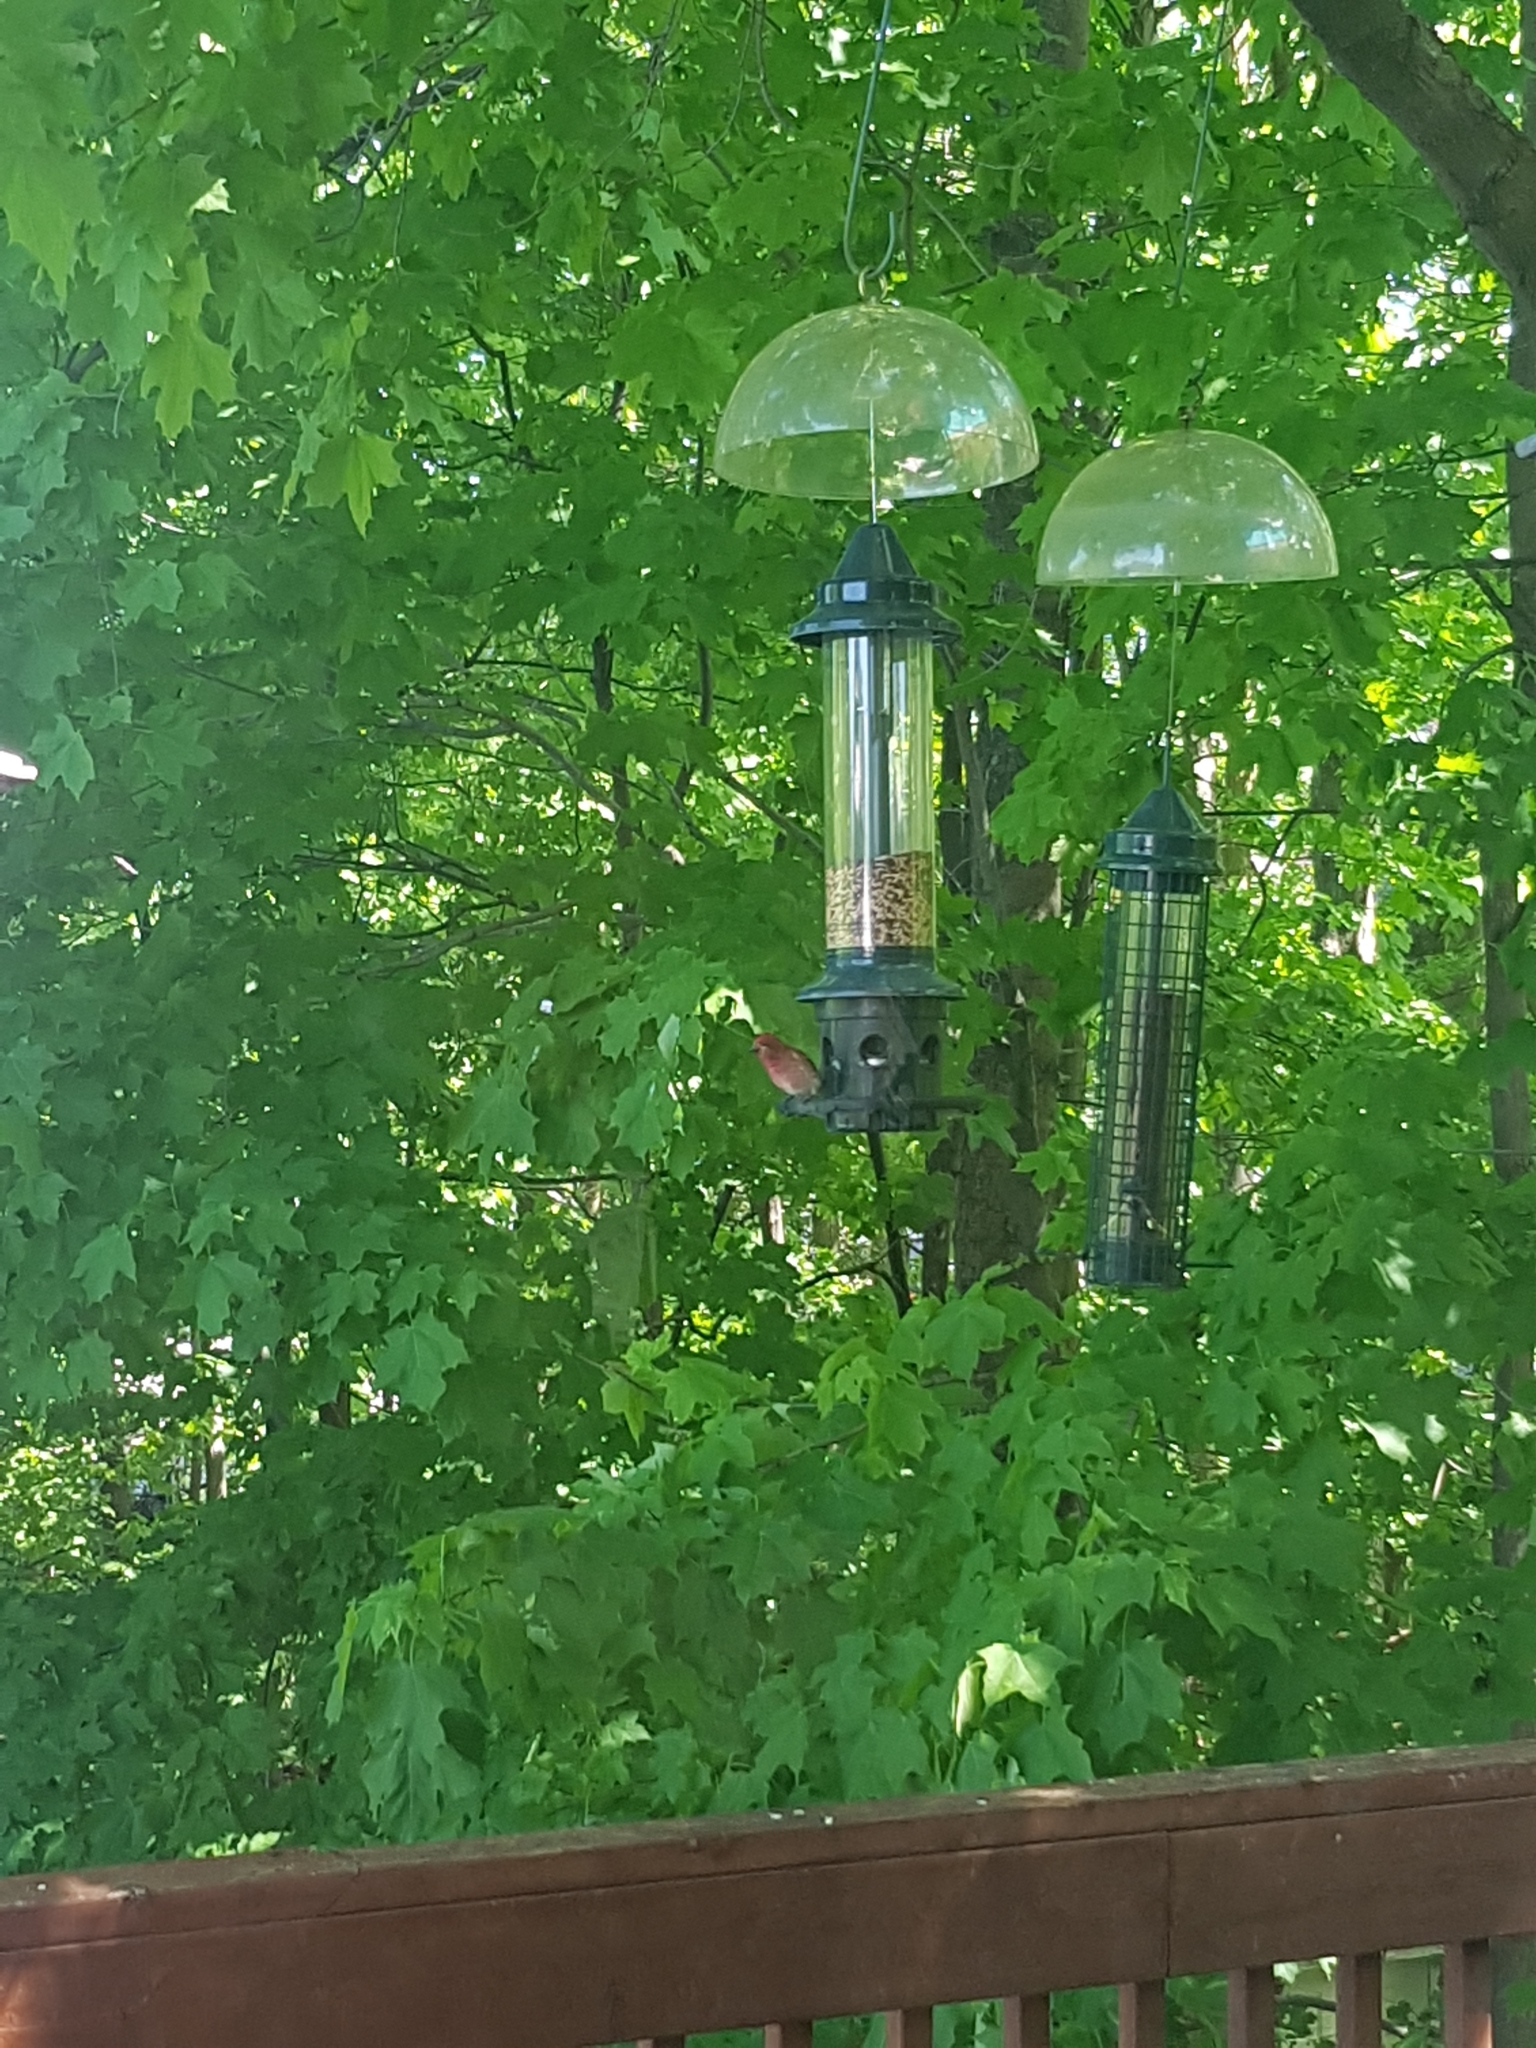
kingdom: Animalia
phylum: Chordata
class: Aves
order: Passeriformes
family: Fringillidae
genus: Haemorhous
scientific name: Haemorhous purpureus
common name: Purple finch
